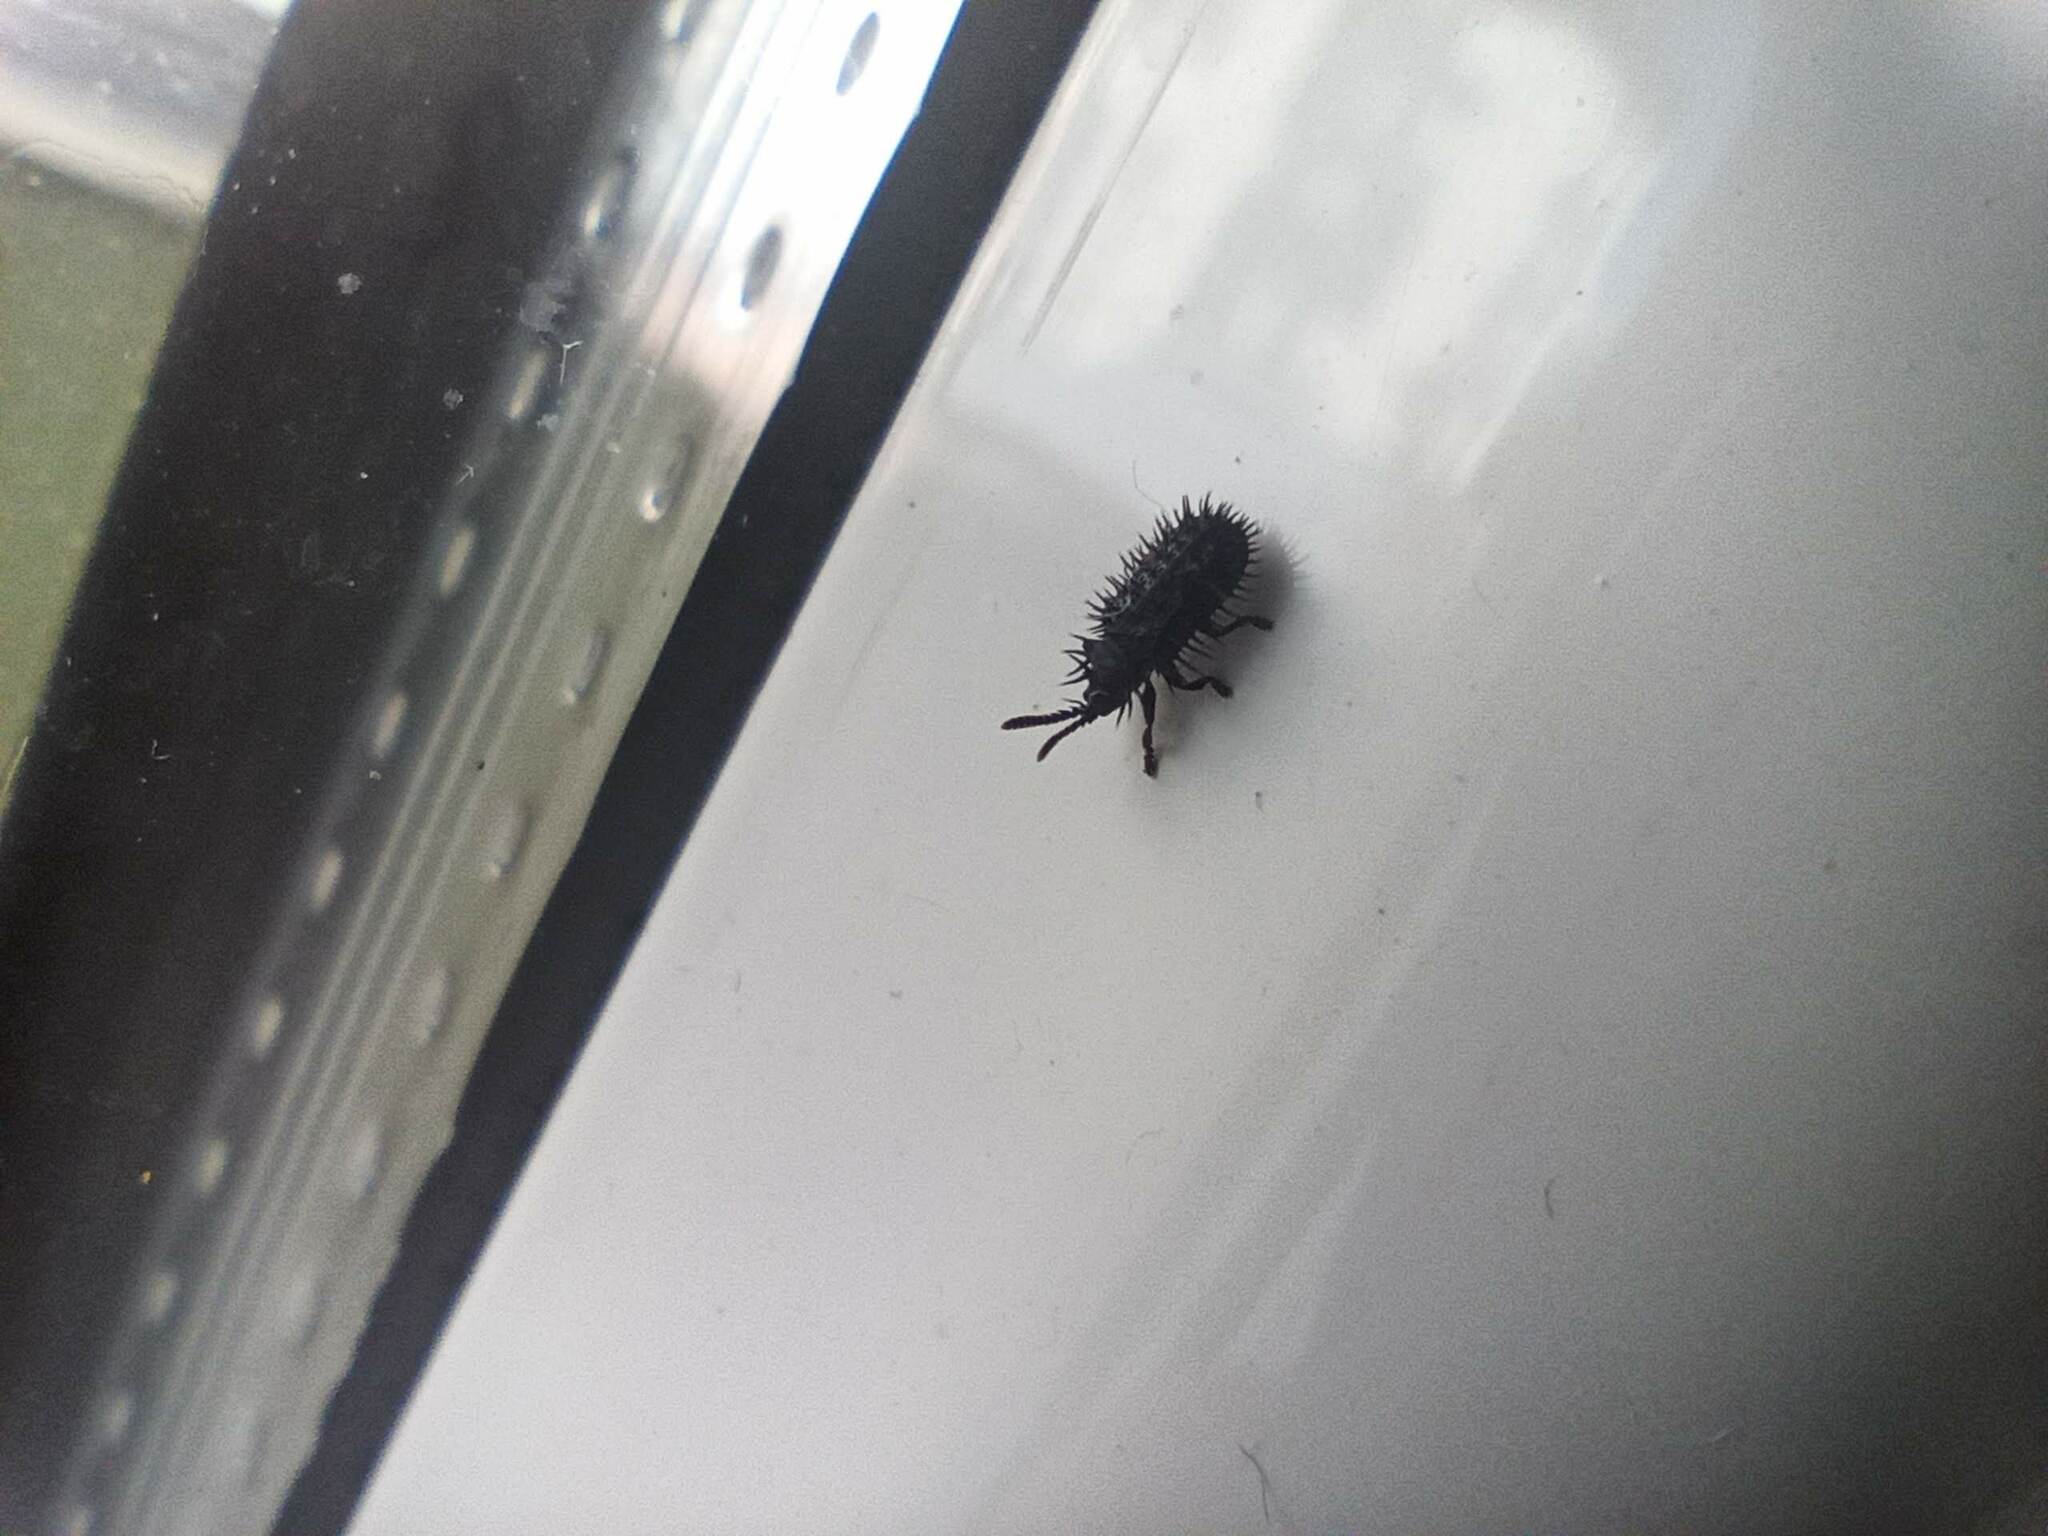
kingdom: Animalia
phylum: Arthropoda
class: Insecta
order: Coleoptera
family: Chrysomelidae
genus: Hispa
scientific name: Hispa atra
